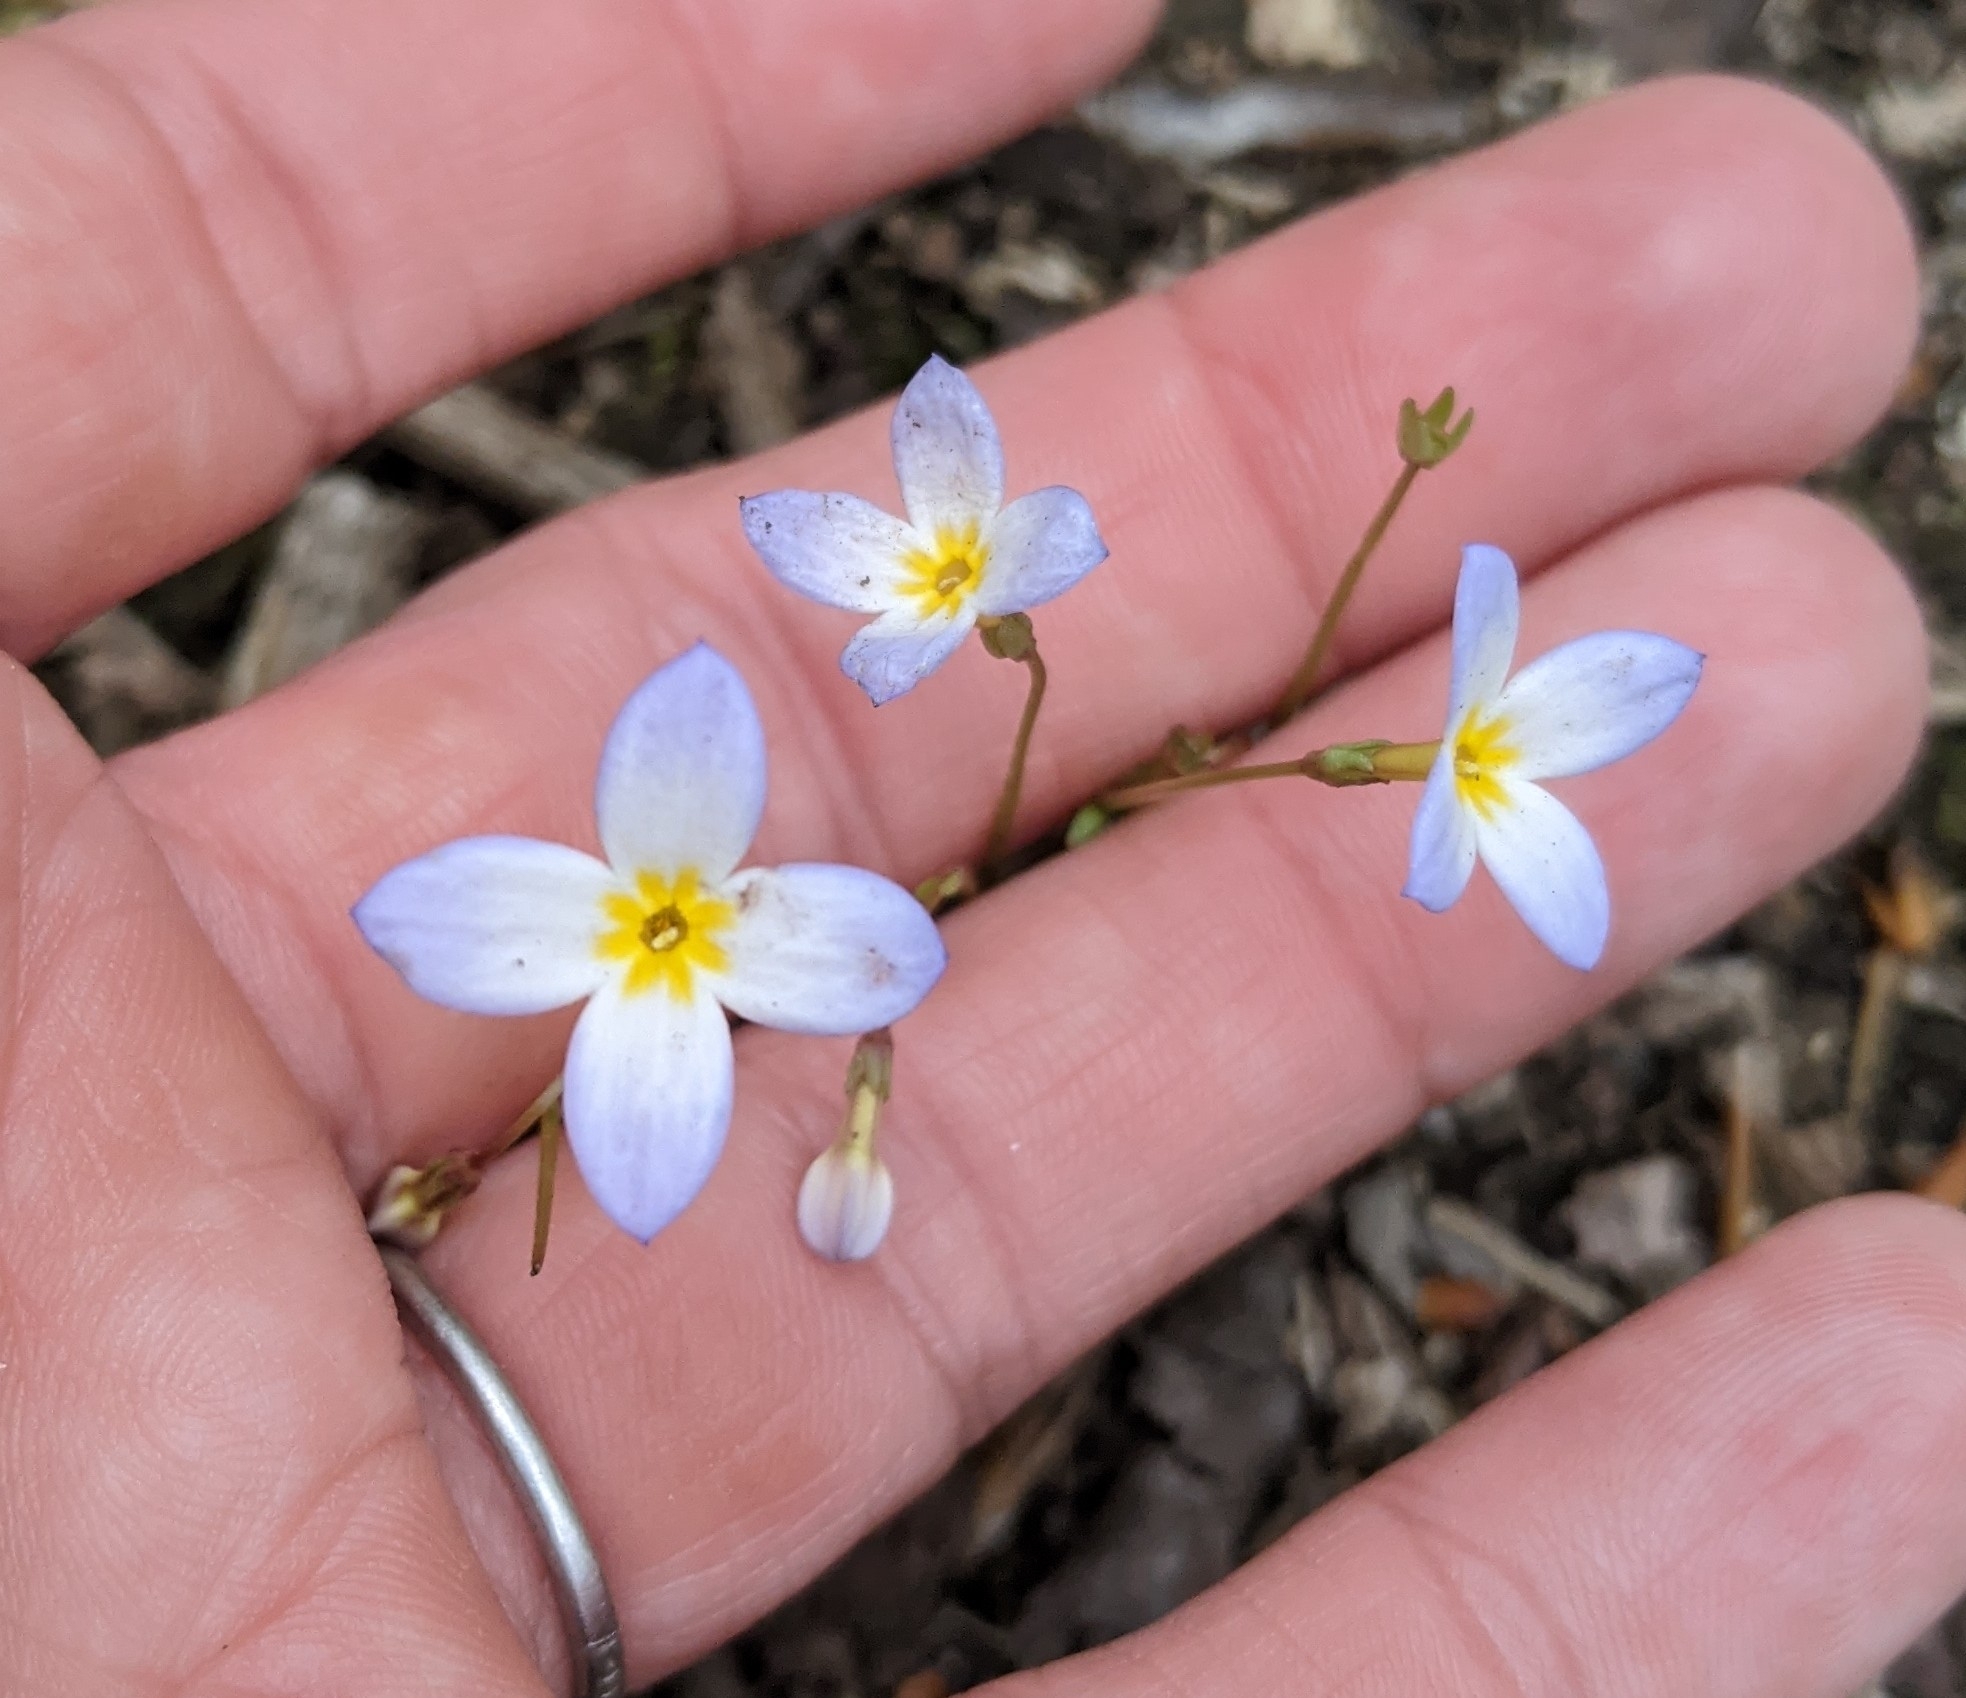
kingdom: Plantae
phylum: Tracheophyta
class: Magnoliopsida
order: Gentianales
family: Rubiaceae
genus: Houstonia
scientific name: Houstonia caerulea
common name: Bluets
